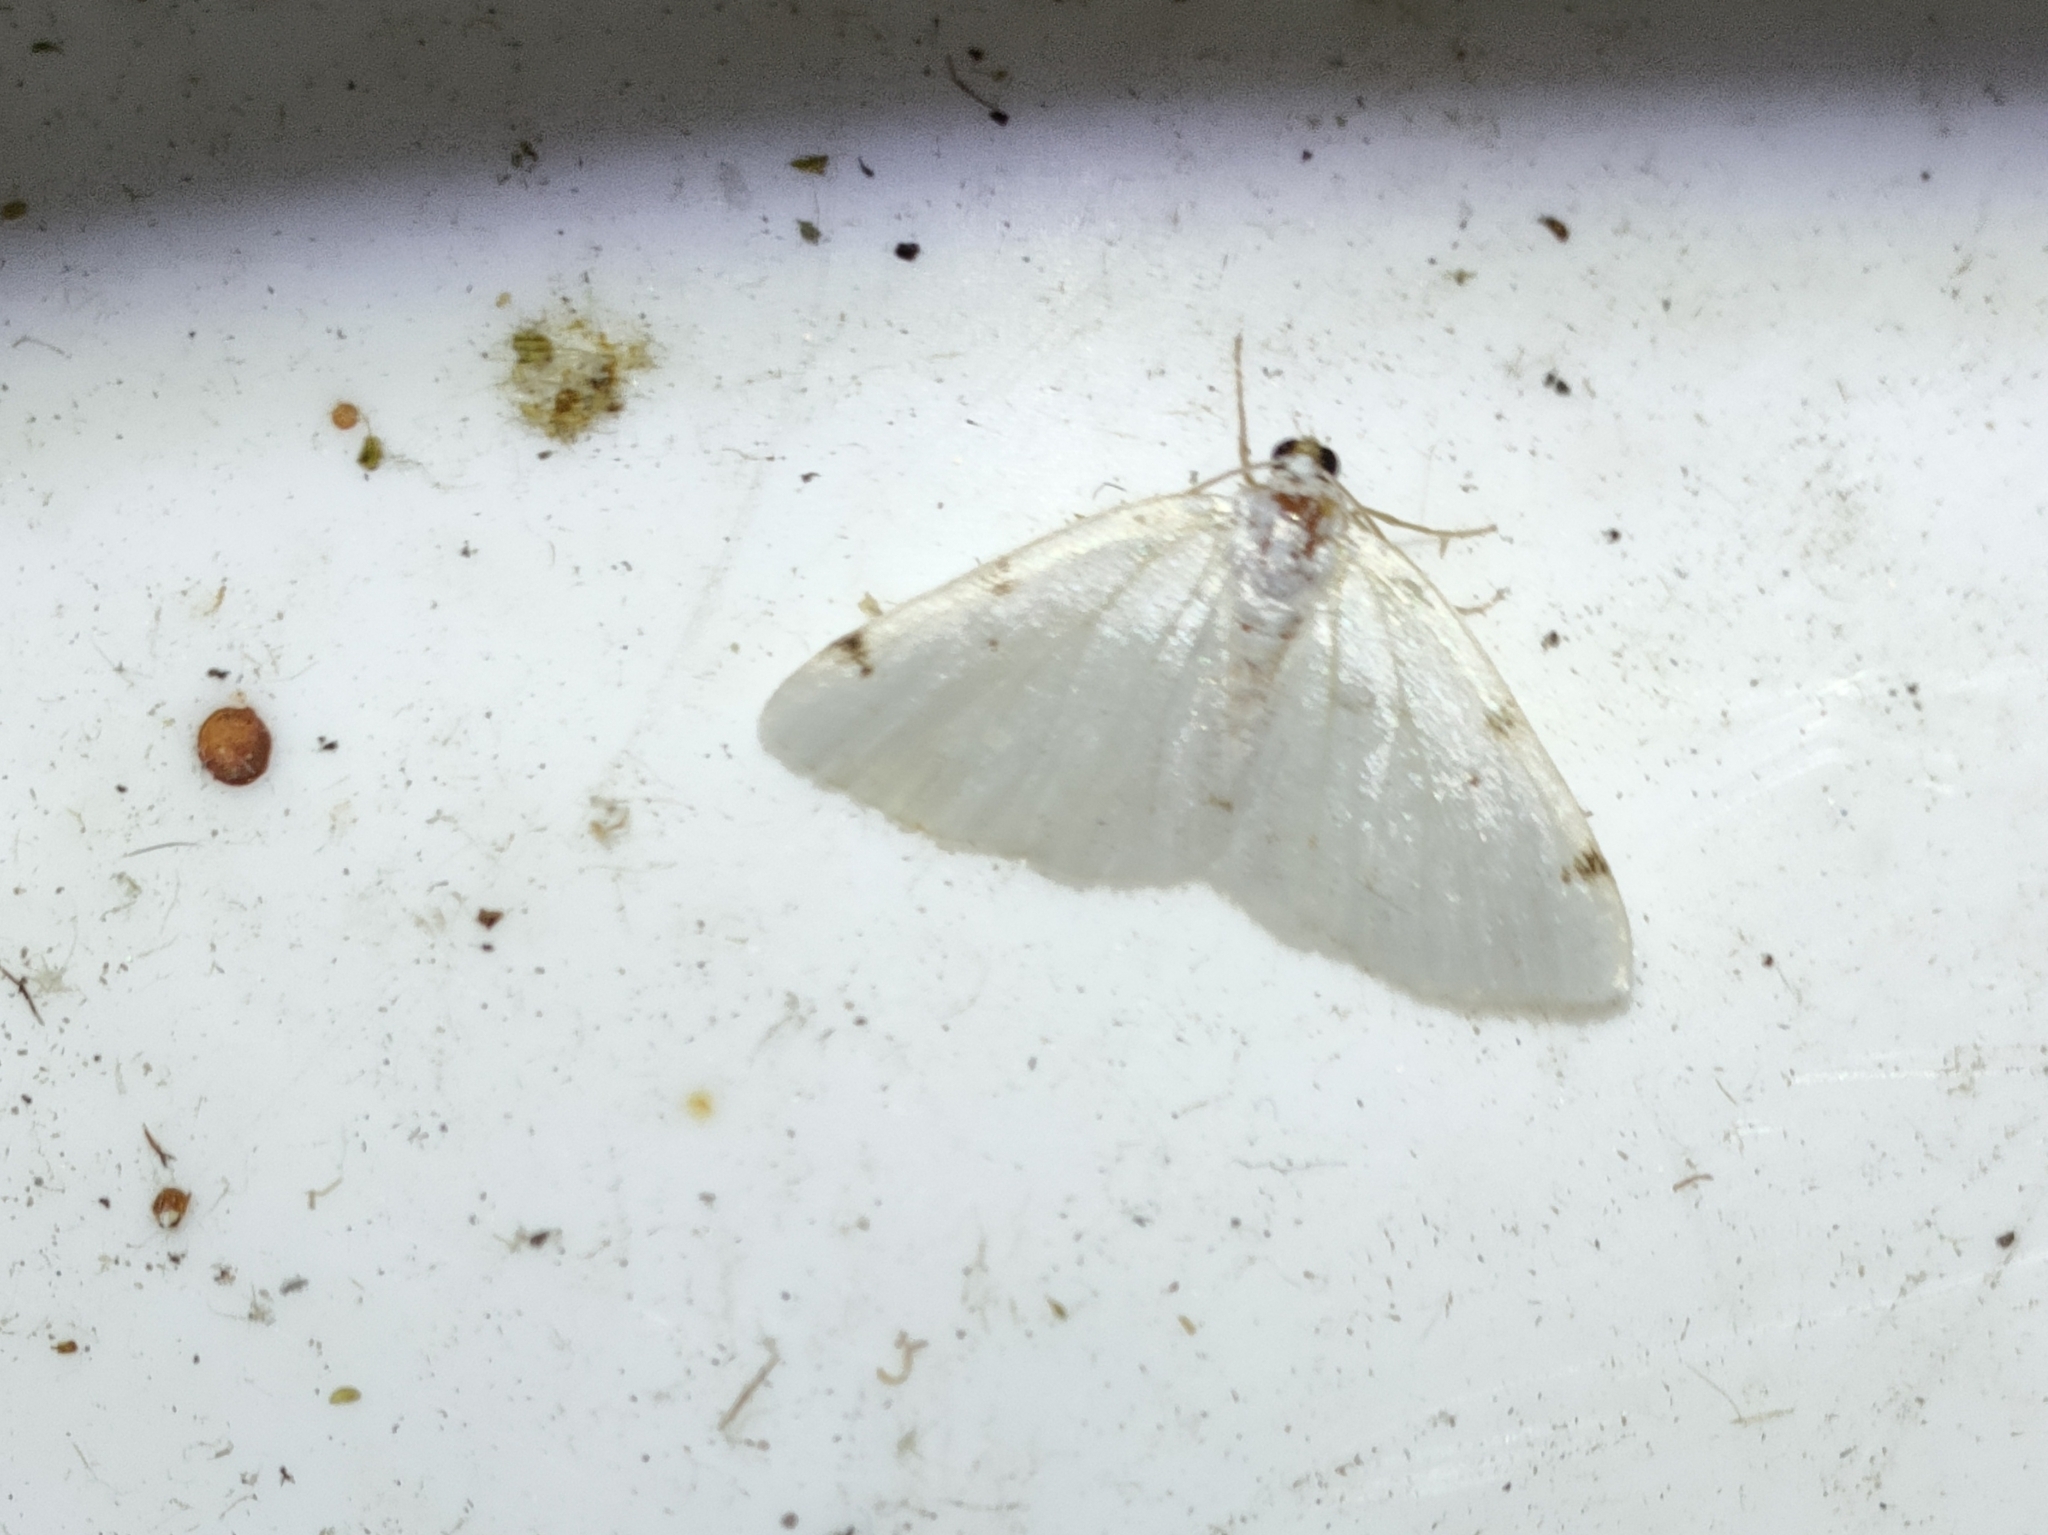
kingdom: Animalia
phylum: Arthropoda
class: Insecta
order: Lepidoptera
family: Geometridae
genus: Lomographa
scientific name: Lomographa bimaculata
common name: White-pinion spotted
